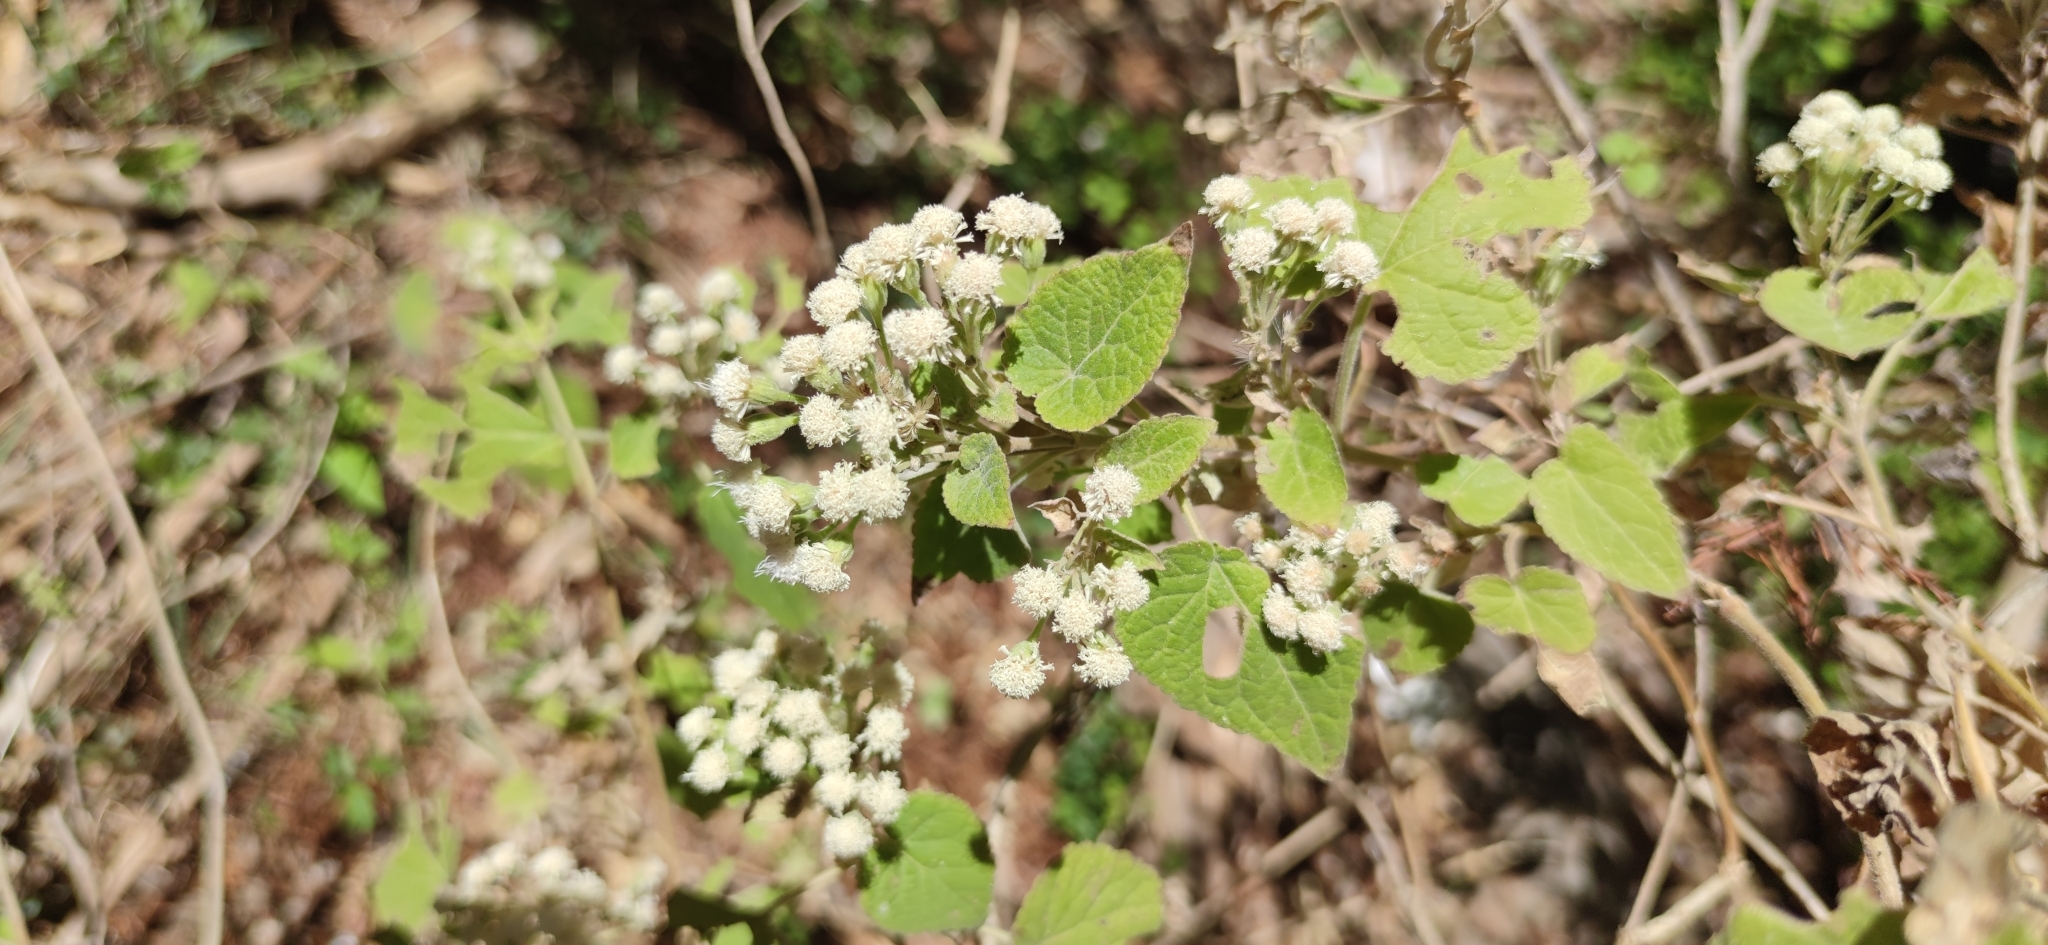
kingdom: Plantae
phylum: Tracheophyta
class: Magnoliopsida
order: Asterales
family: Asteraceae
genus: Ageratina
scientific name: Ageratina petiolaris
